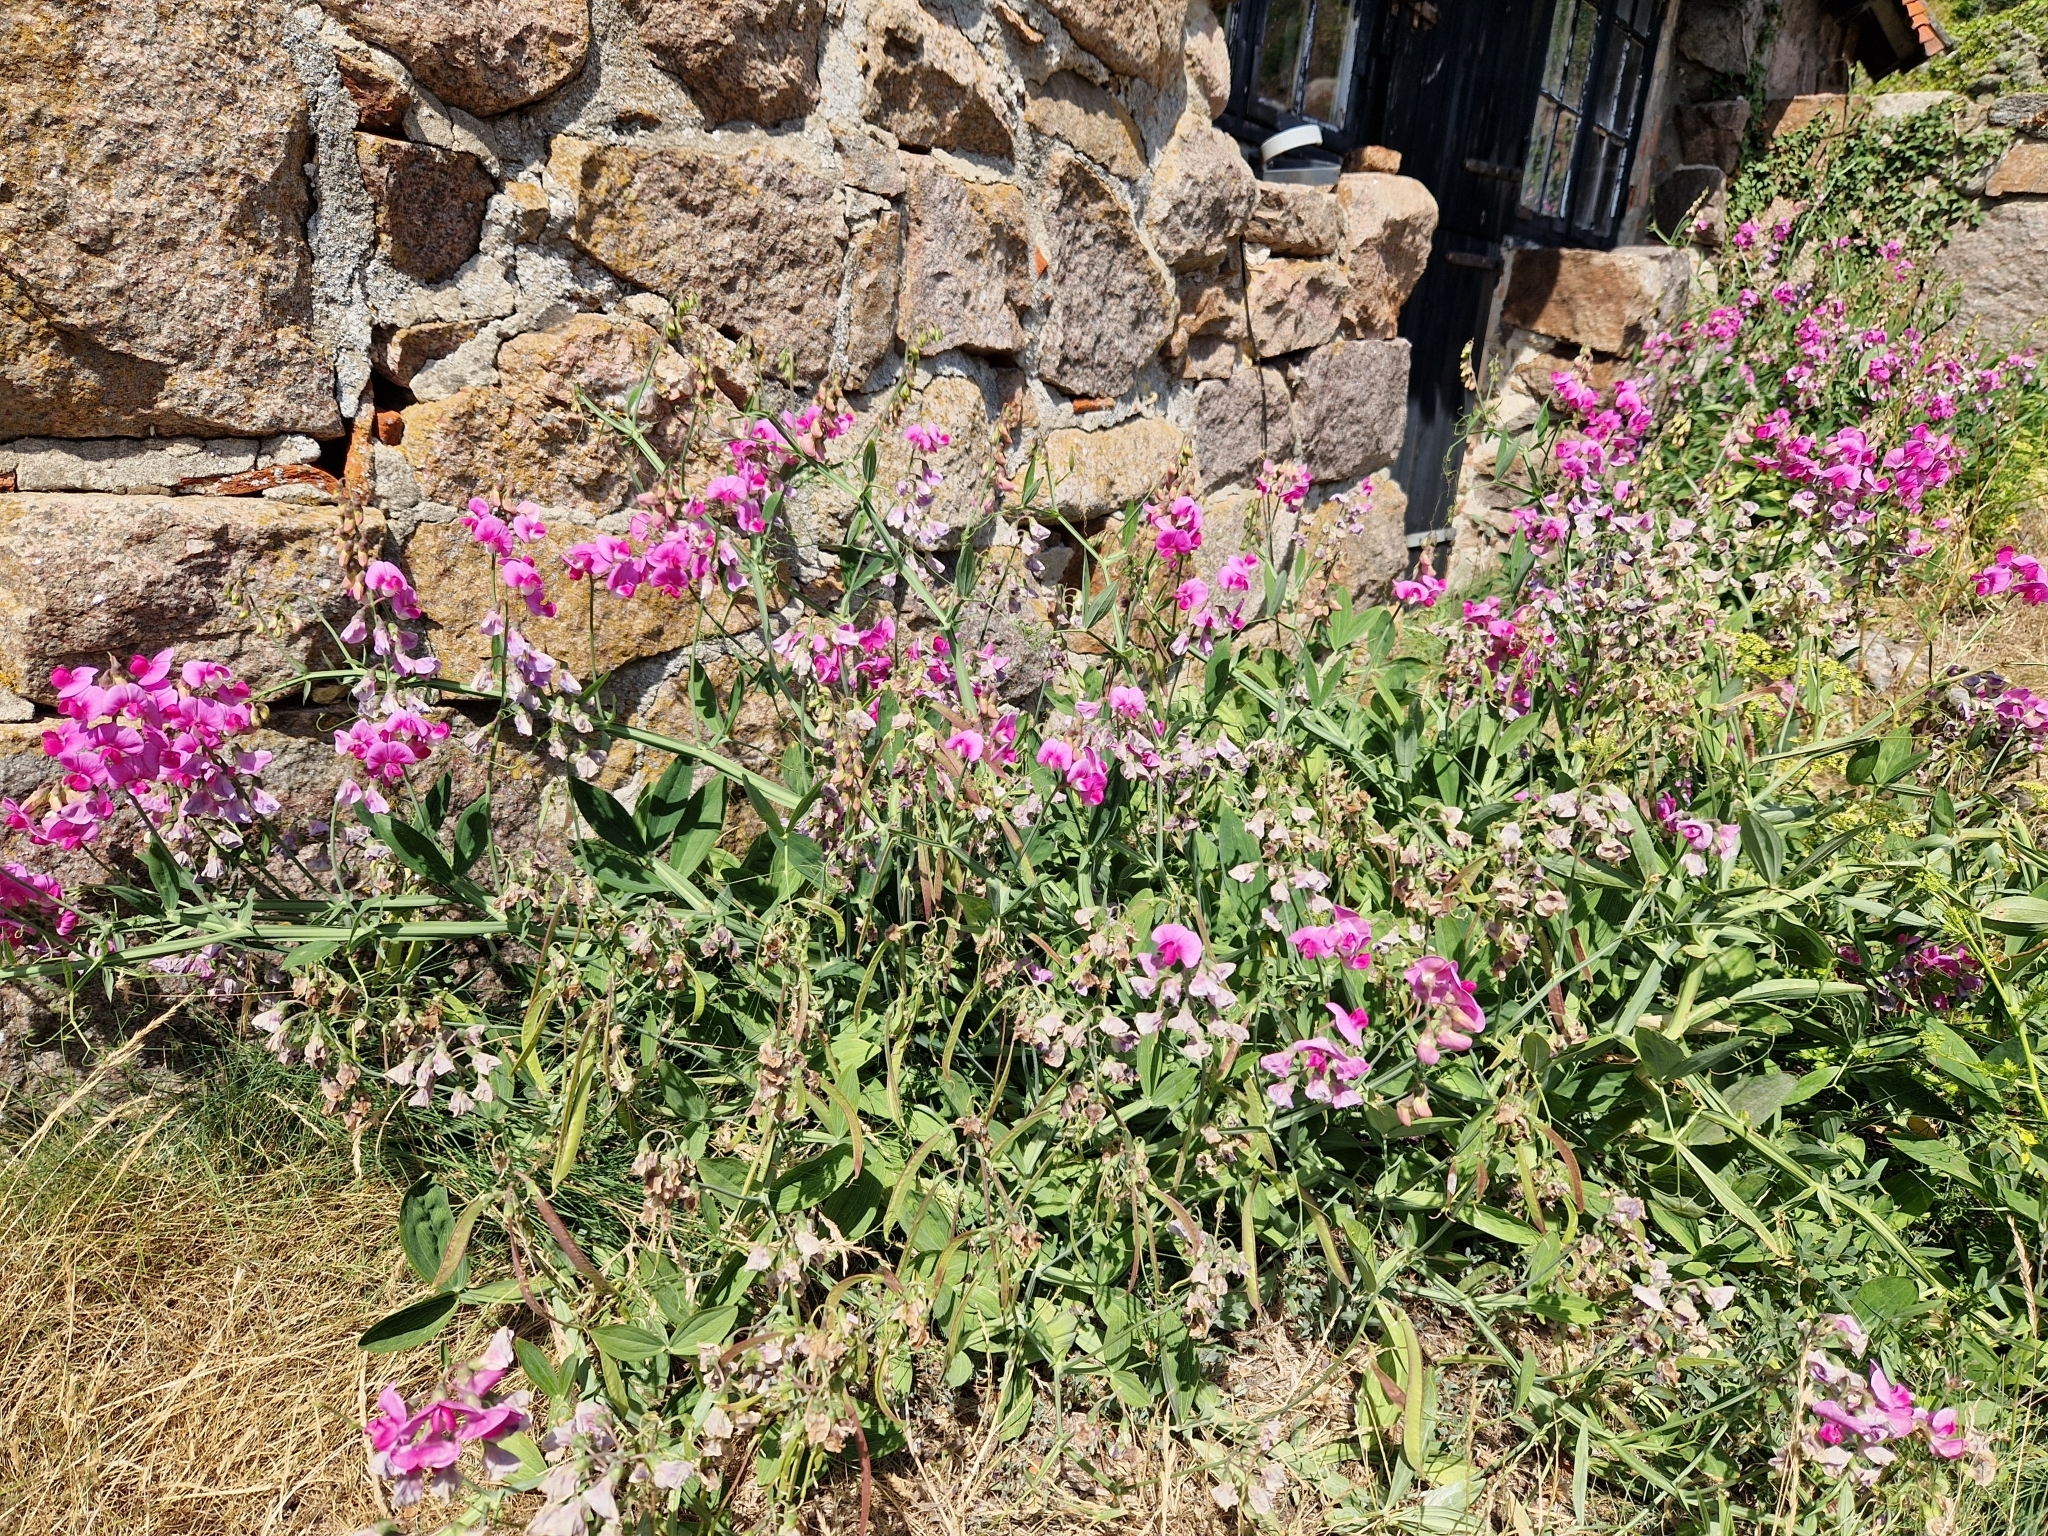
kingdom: Plantae
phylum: Tracheophyta
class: Magnoliopsida
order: Fabales
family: Fabaceae
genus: Lathyrus
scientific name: Lathyrus latifolius
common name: Perennial pea
